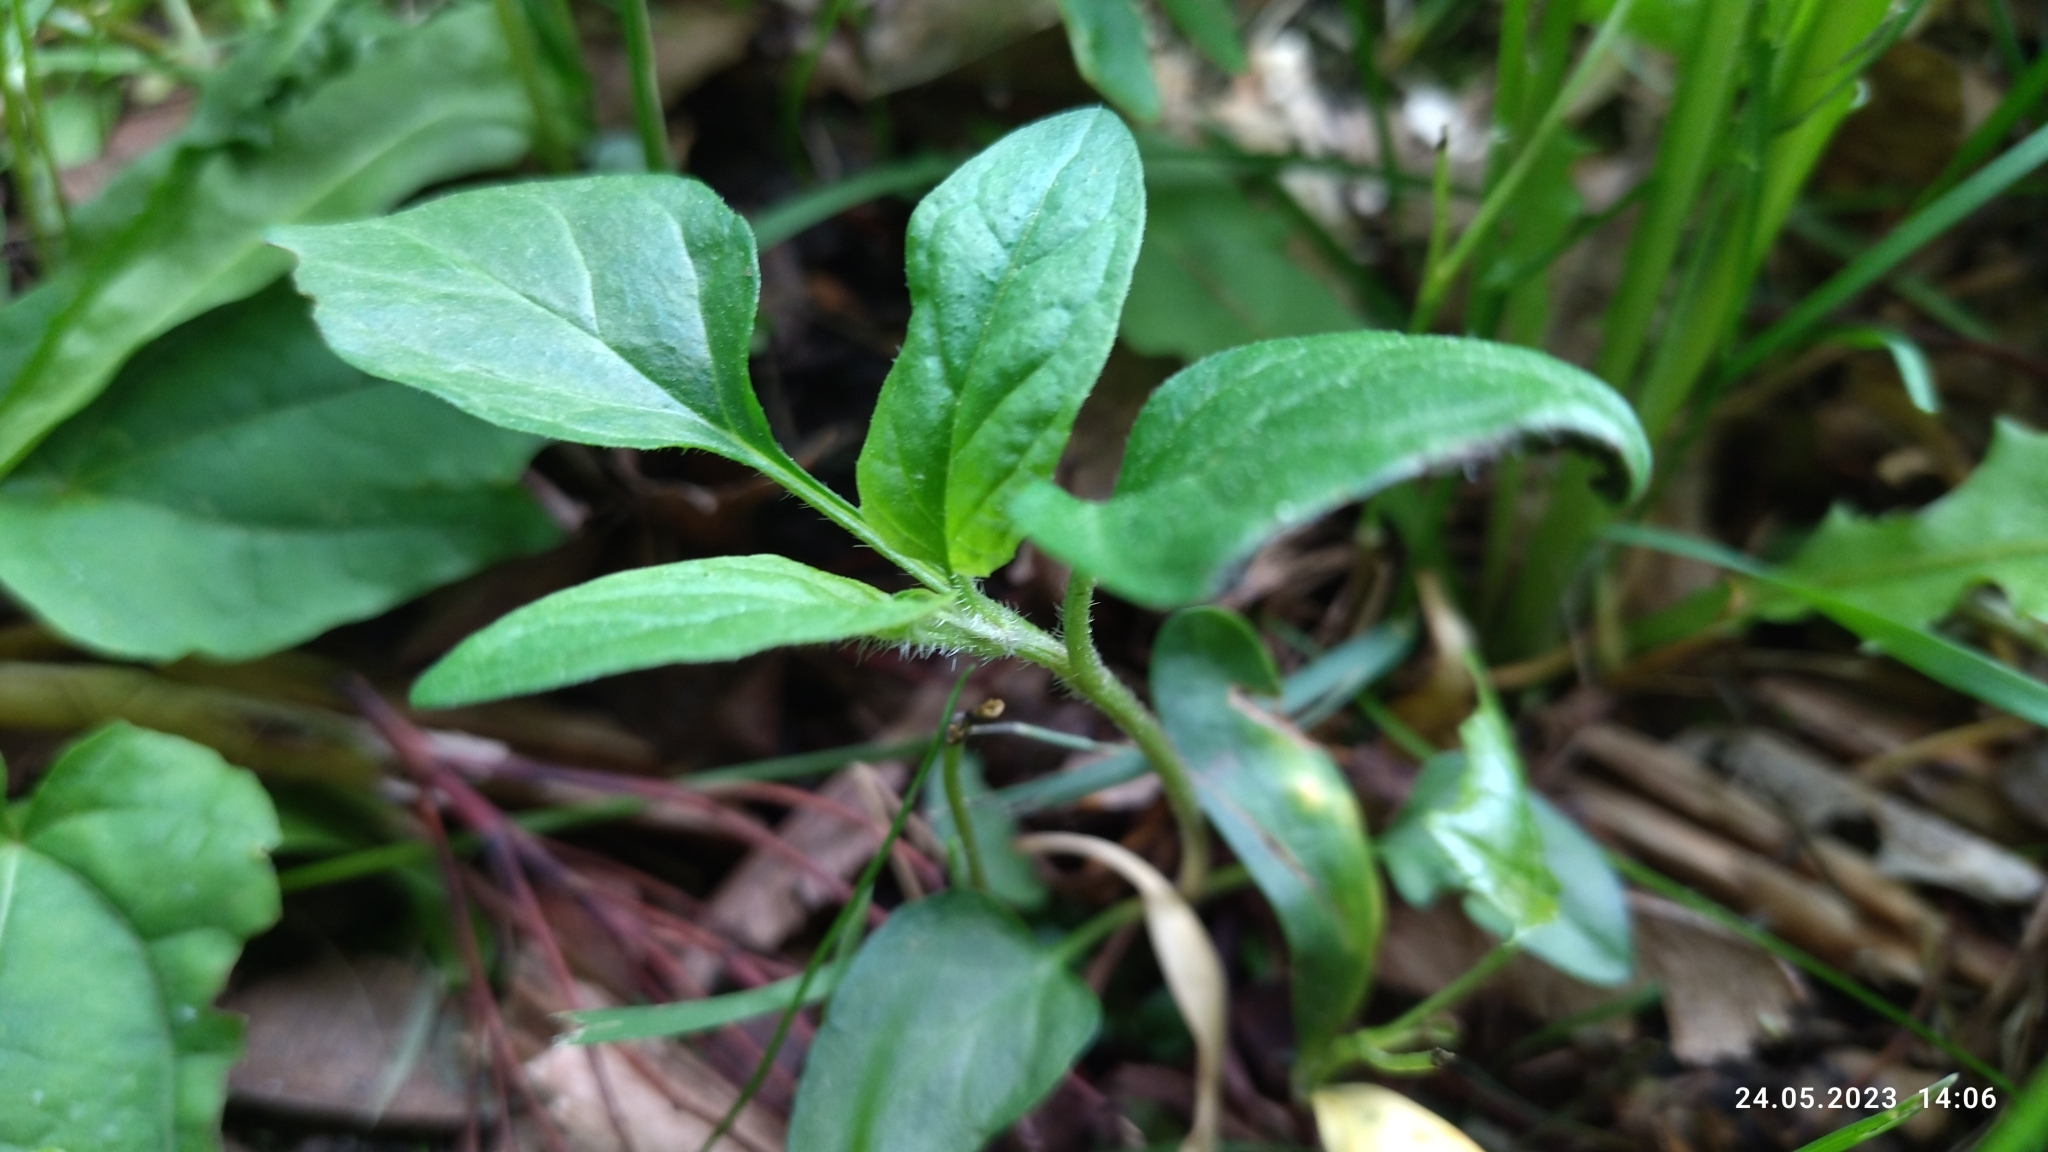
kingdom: Plantae
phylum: Tracheophyta
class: Magnoliopsida
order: Lamiales
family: Lamiaceae
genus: Prunella
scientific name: Prunella vulgaris
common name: Heal-all
